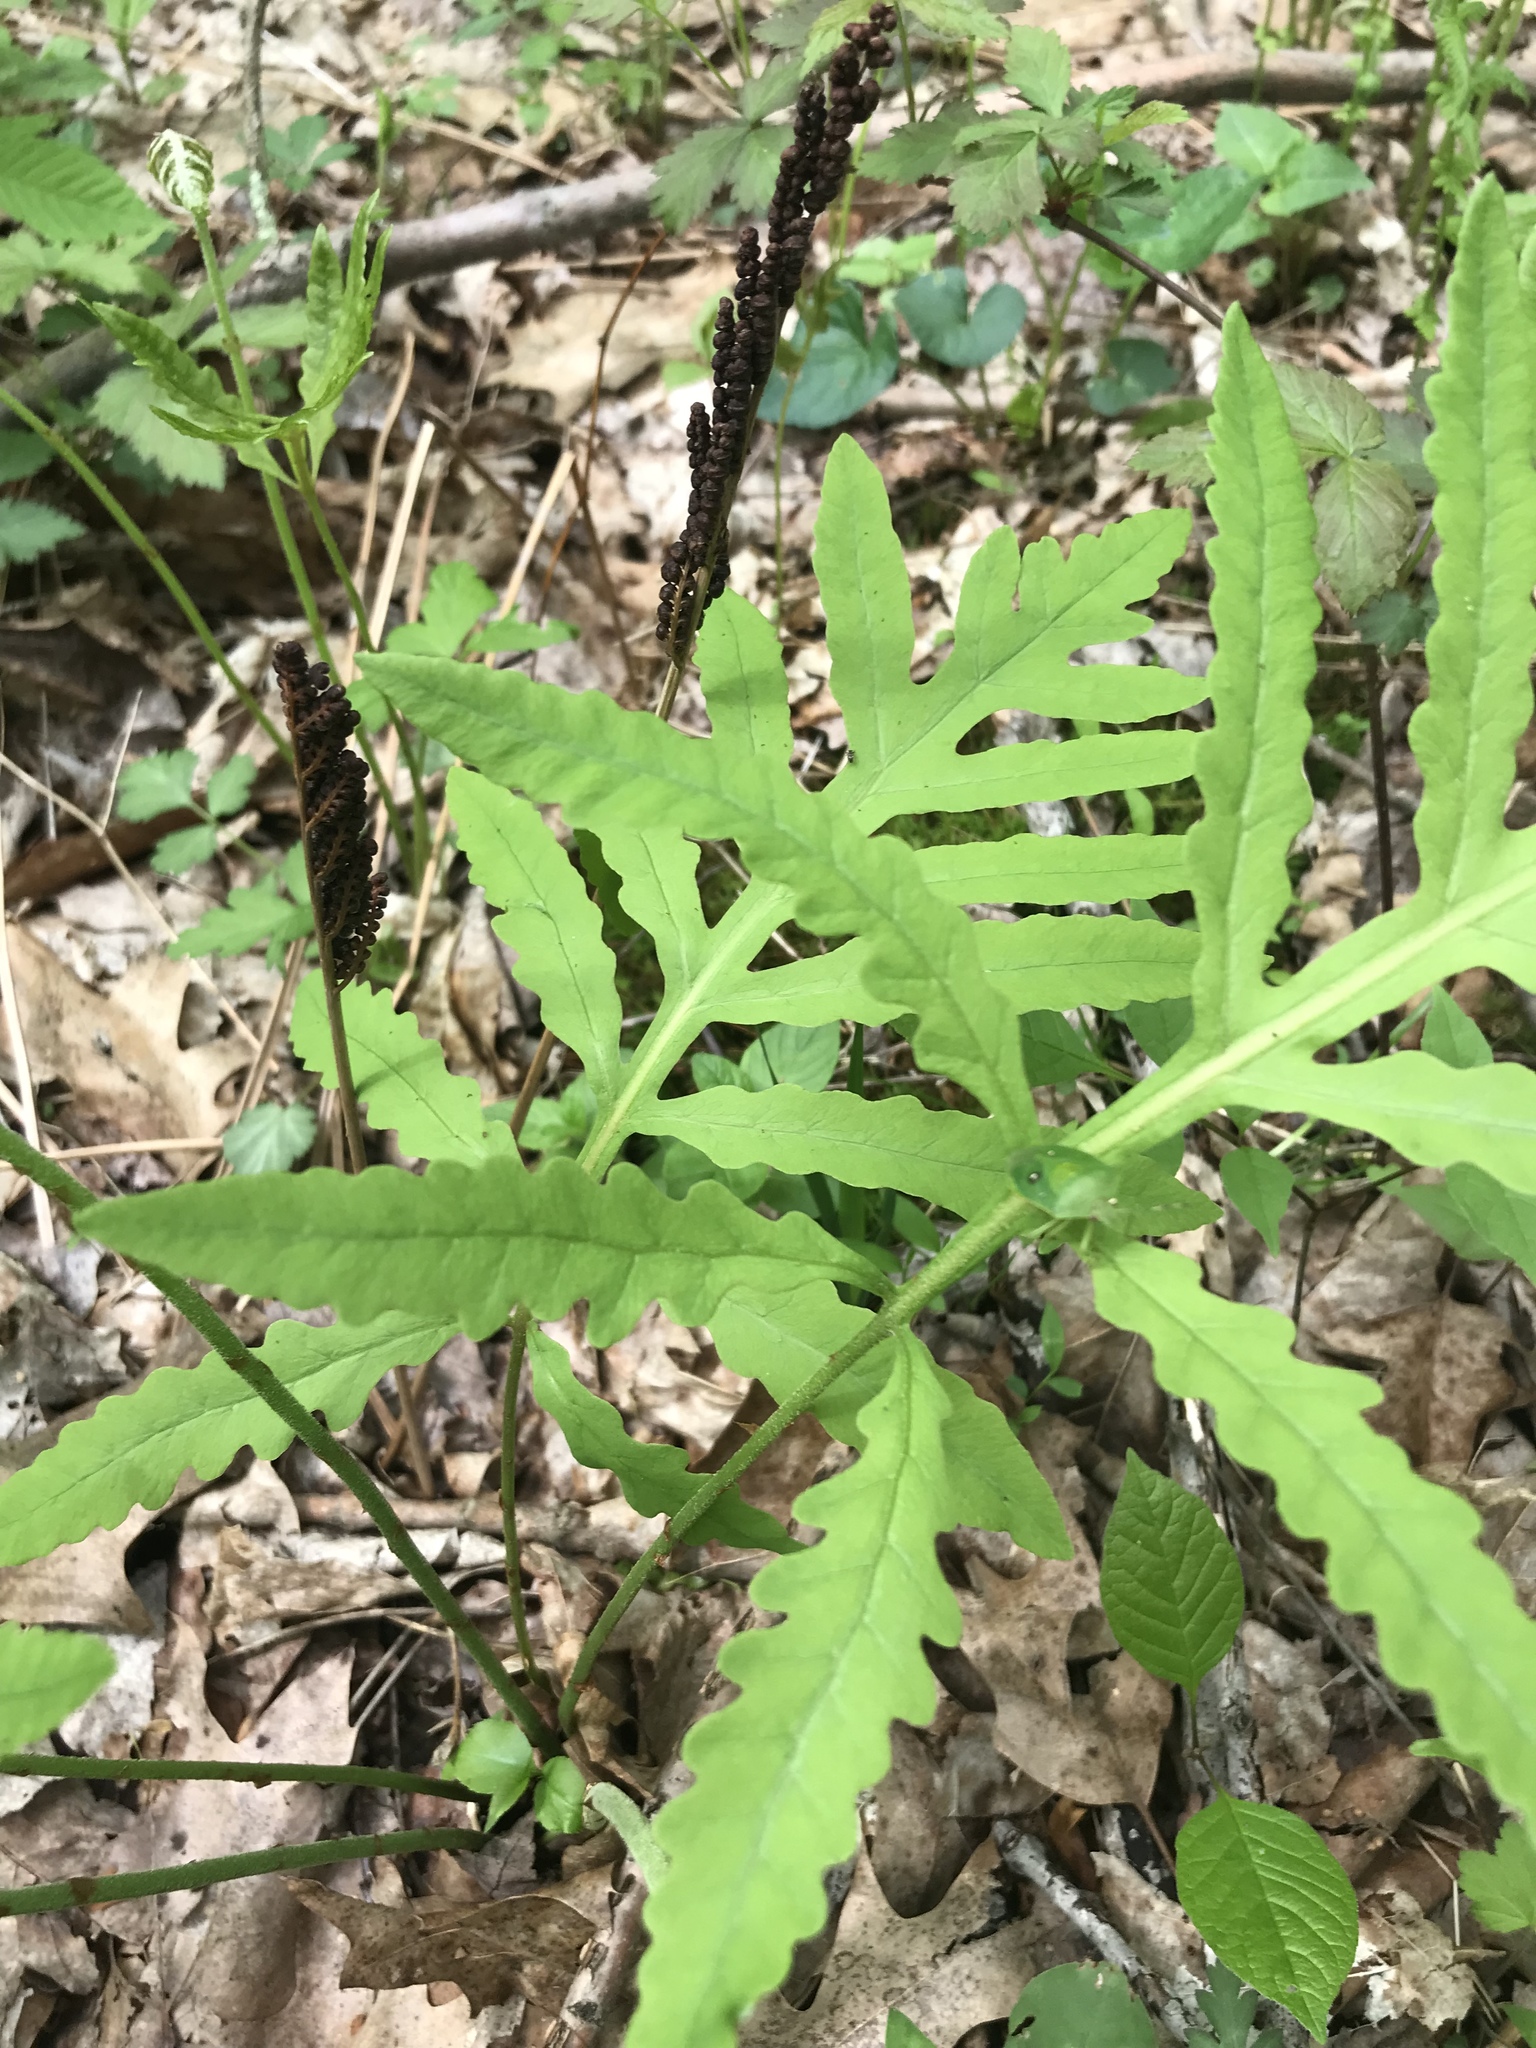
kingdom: Plantae
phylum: Tracheophyta
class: Polypodiopsida
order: Polypodiales
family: Onocleaceae
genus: Onoclea
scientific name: Onoclea sensibilis
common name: Sensitive fern
